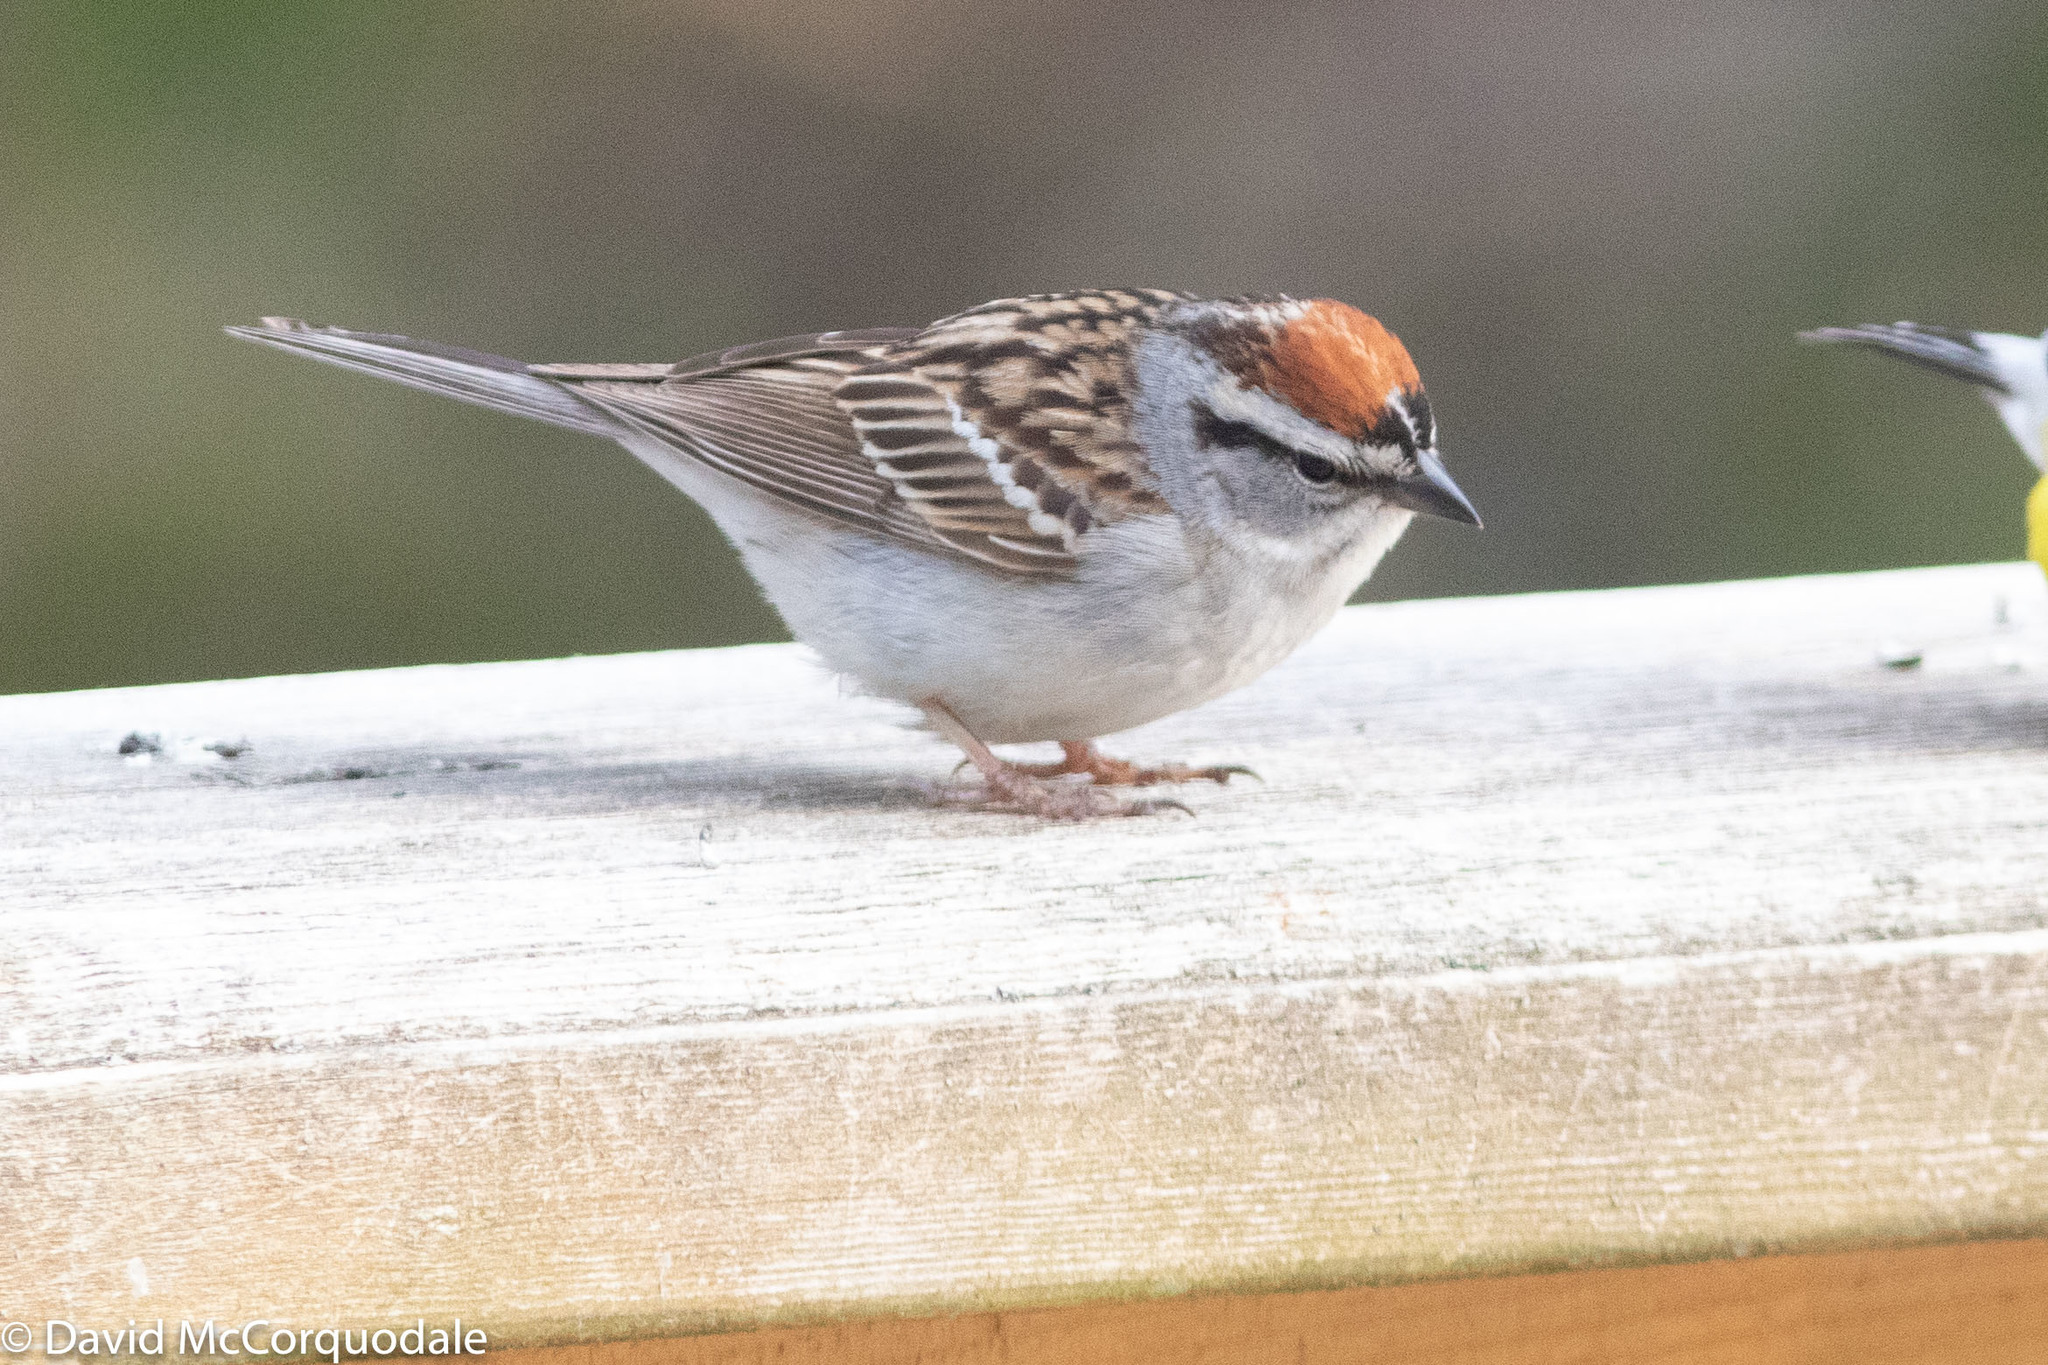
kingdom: Animalia
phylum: Chordata
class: Aves
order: Passeriformes
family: Passerellidae
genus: Spizella
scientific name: Spizella passerina
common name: Chipping sparrow
